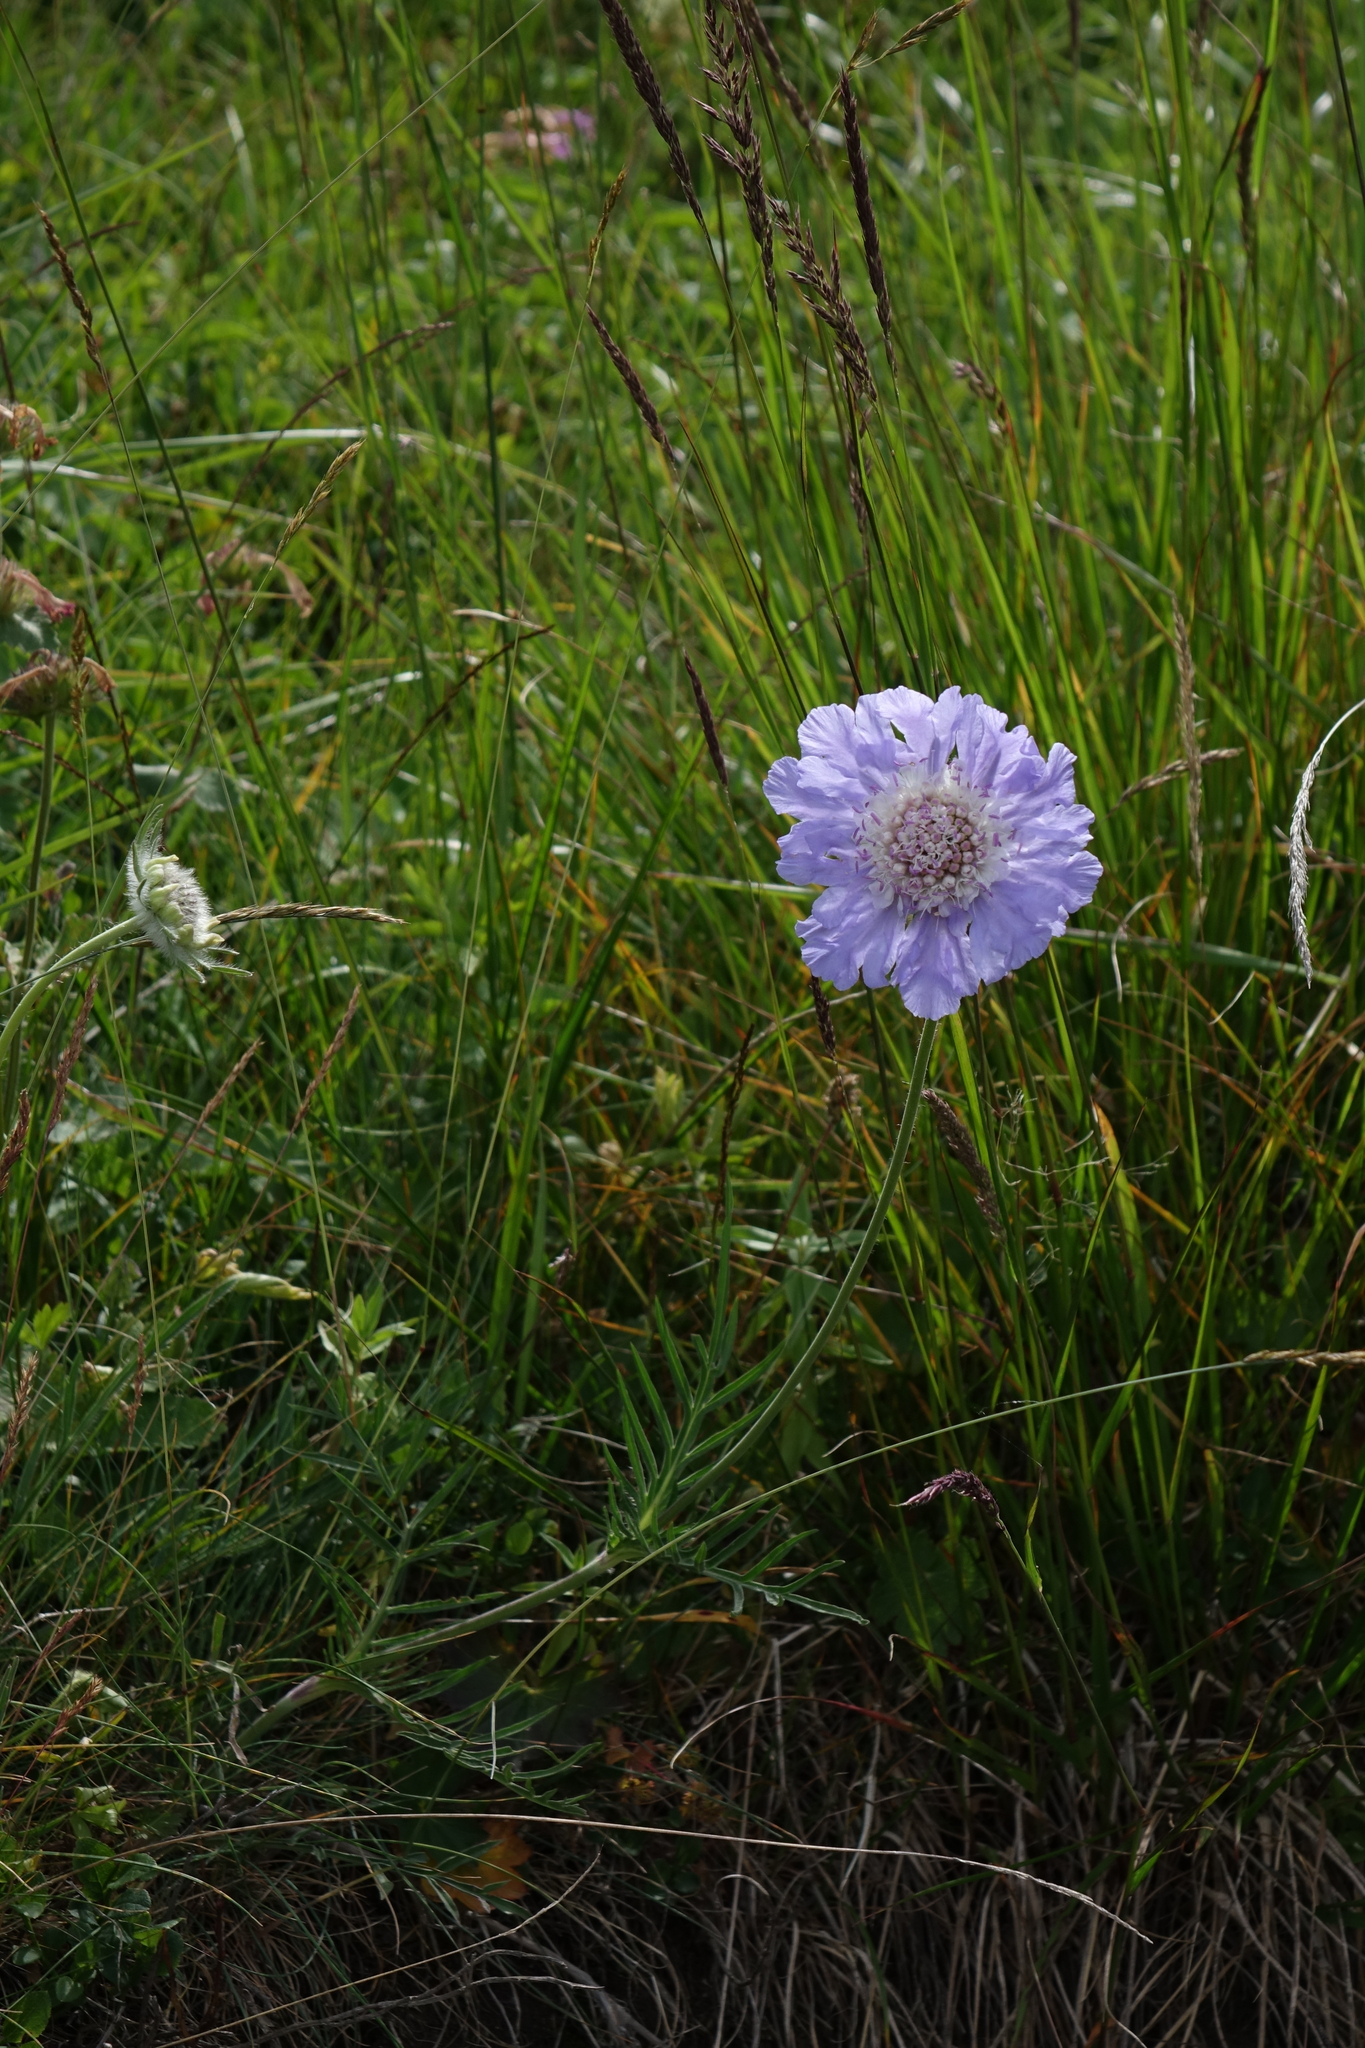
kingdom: Plantae
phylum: Tracheophyta
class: Magnoliopsida
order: Dipsacales
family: Caprifoliaceae
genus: Lomelosia
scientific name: Lomelosia caucasica
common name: Pincushion-flower
